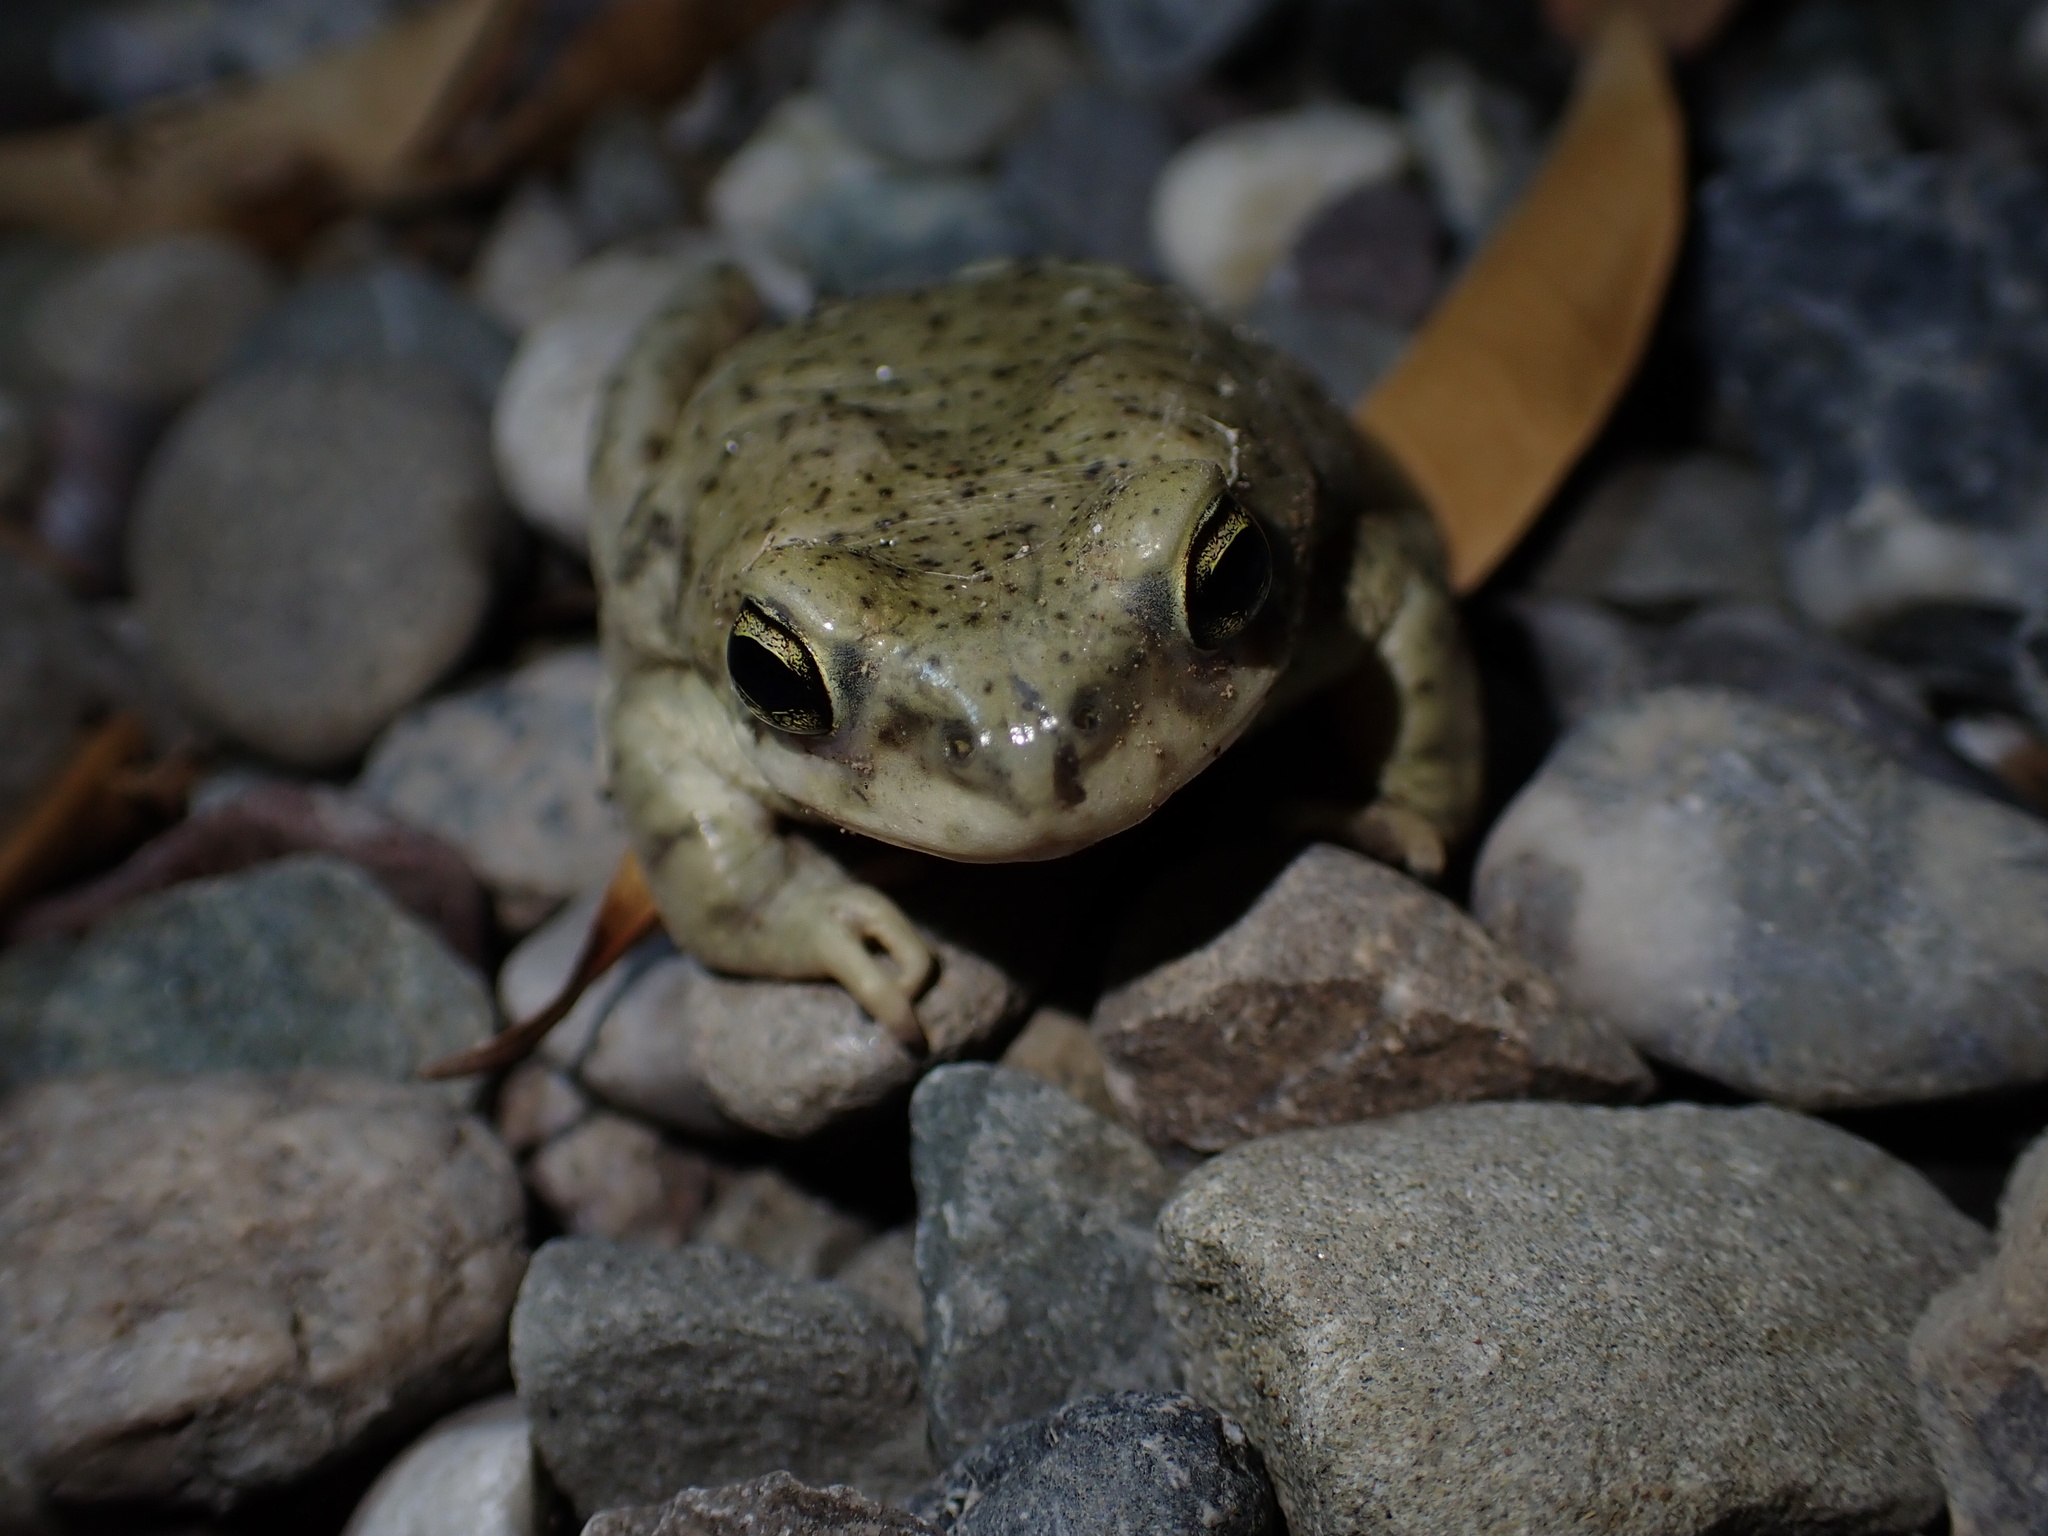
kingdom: Animalia
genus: Firouzophrynus
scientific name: Firouzophrynus
